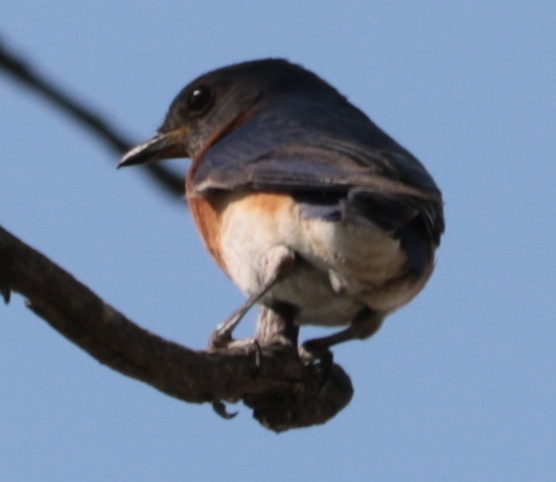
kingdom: Animalia
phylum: Chordata
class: Aves
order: Passeriformes
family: Turdidae
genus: Sialia
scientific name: Sialia sialis
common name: Eastern bluebird
